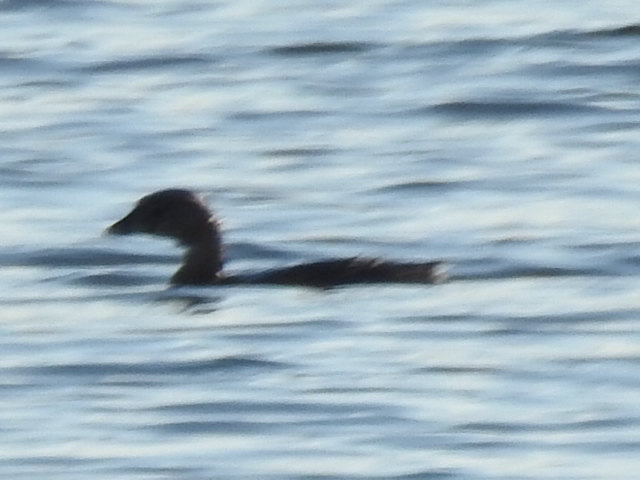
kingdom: Animalia
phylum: Chordata
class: Aves
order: Podicipediformes
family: Podicipedidae
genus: Podilymbus
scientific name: Podilymbus podiceps
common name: Pied-billed grebe
